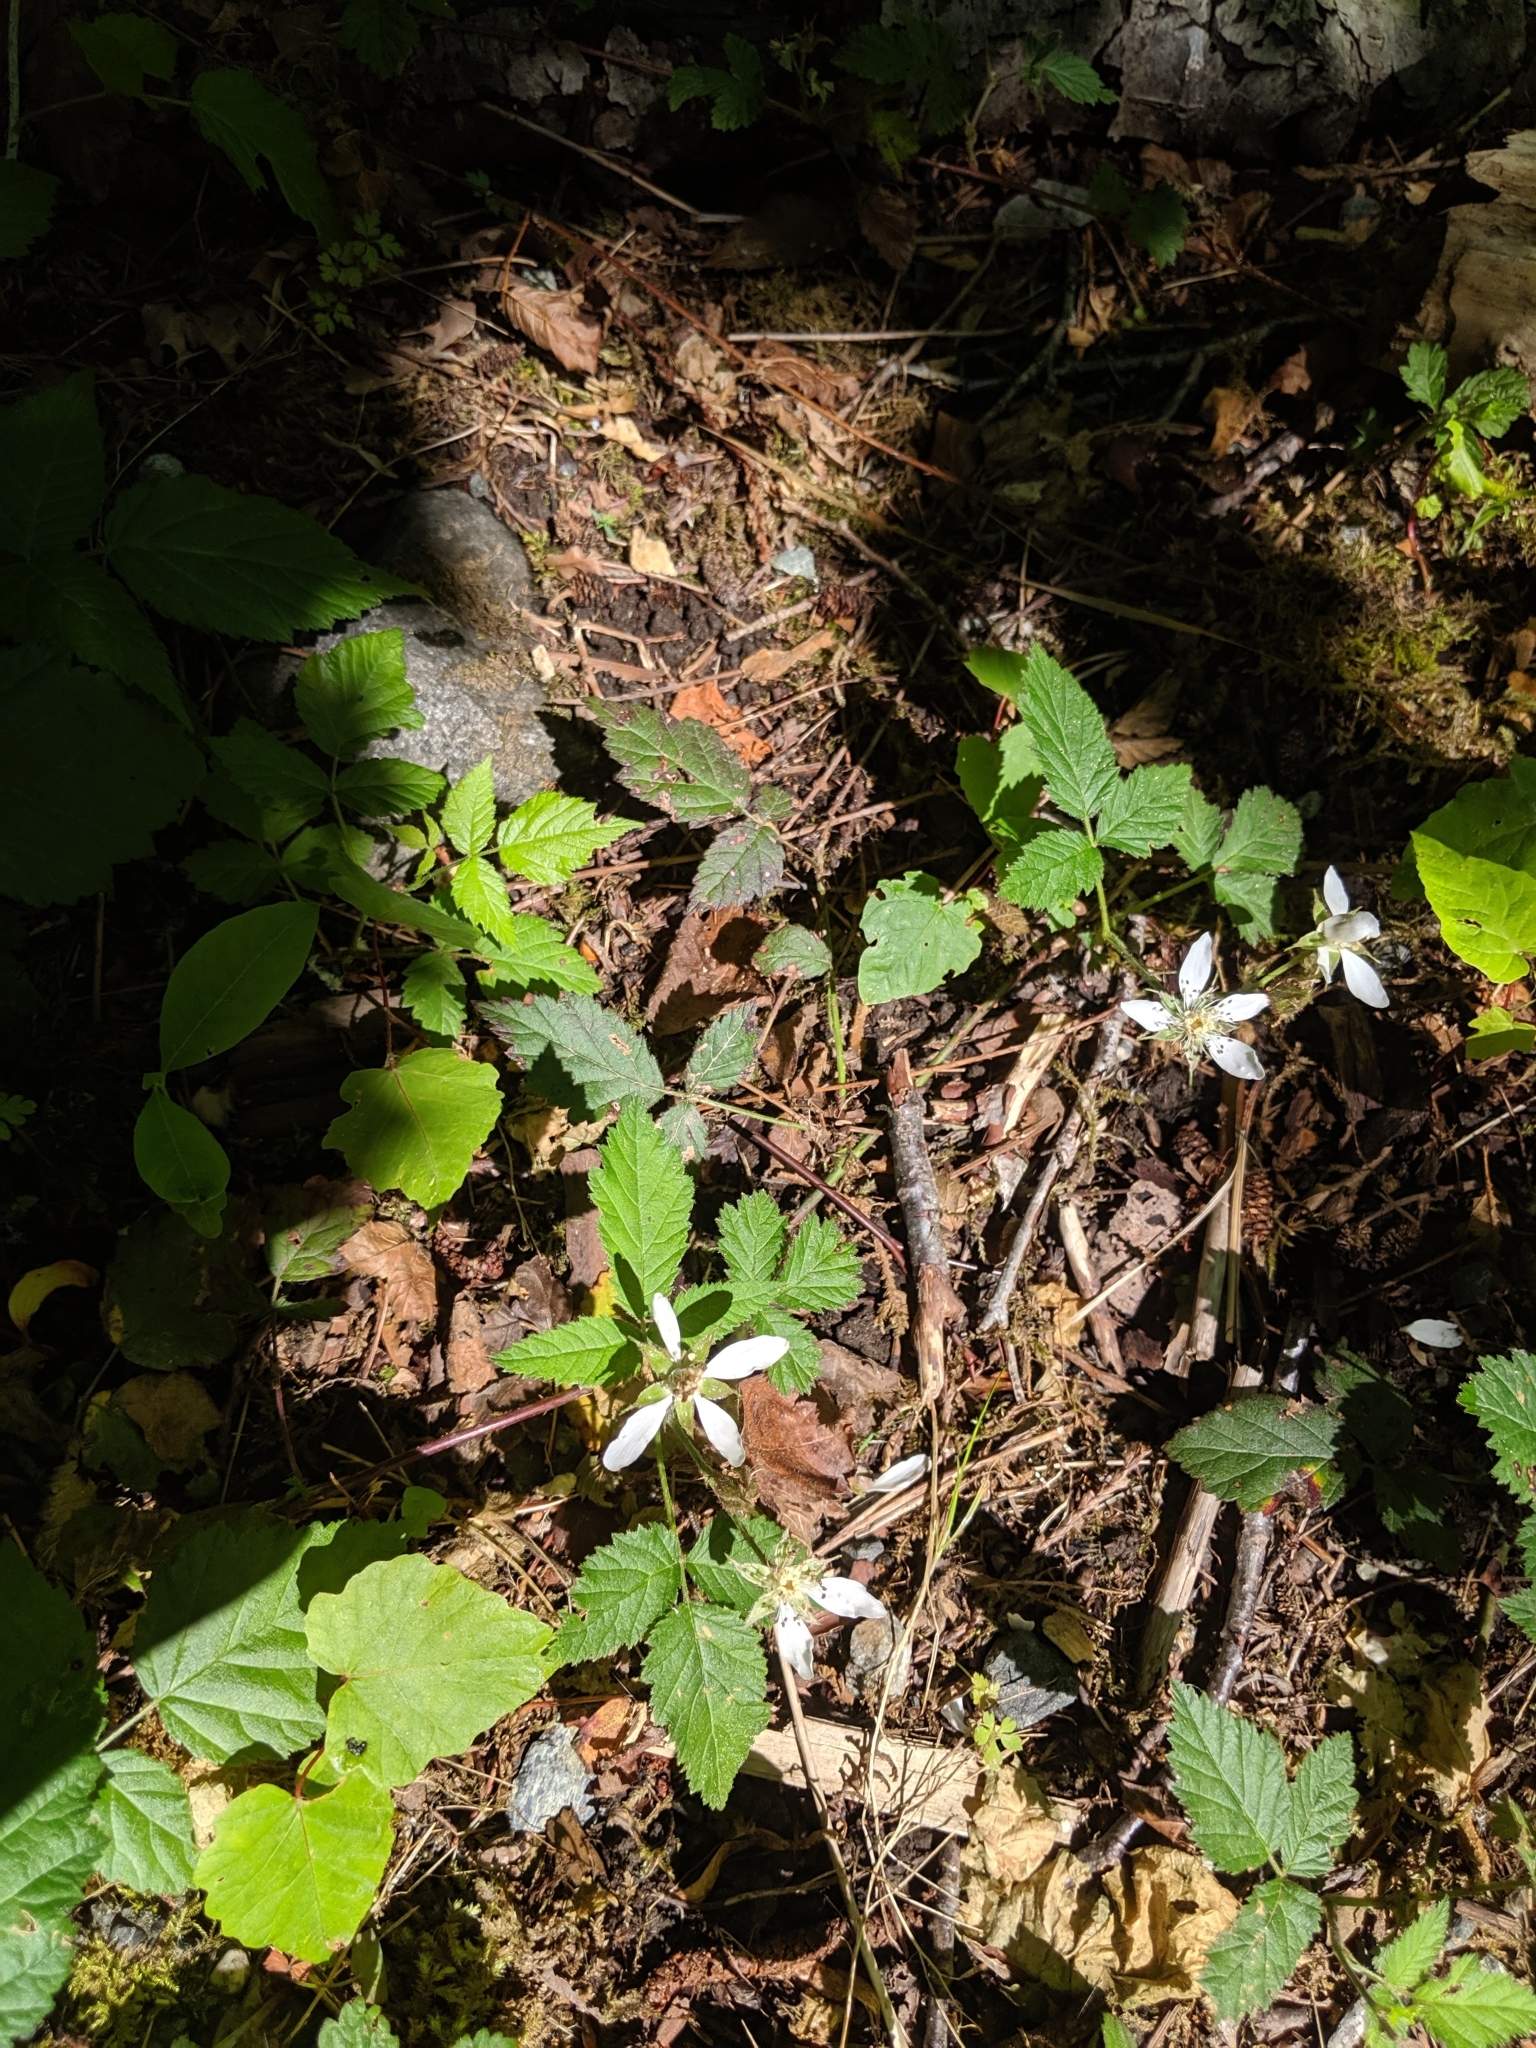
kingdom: Plantae
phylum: Tracheophyta
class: Magnoliopsida
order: Rosales
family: Rosaceae
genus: Rubus
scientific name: Rubus ursinus
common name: Pacific blackberry
